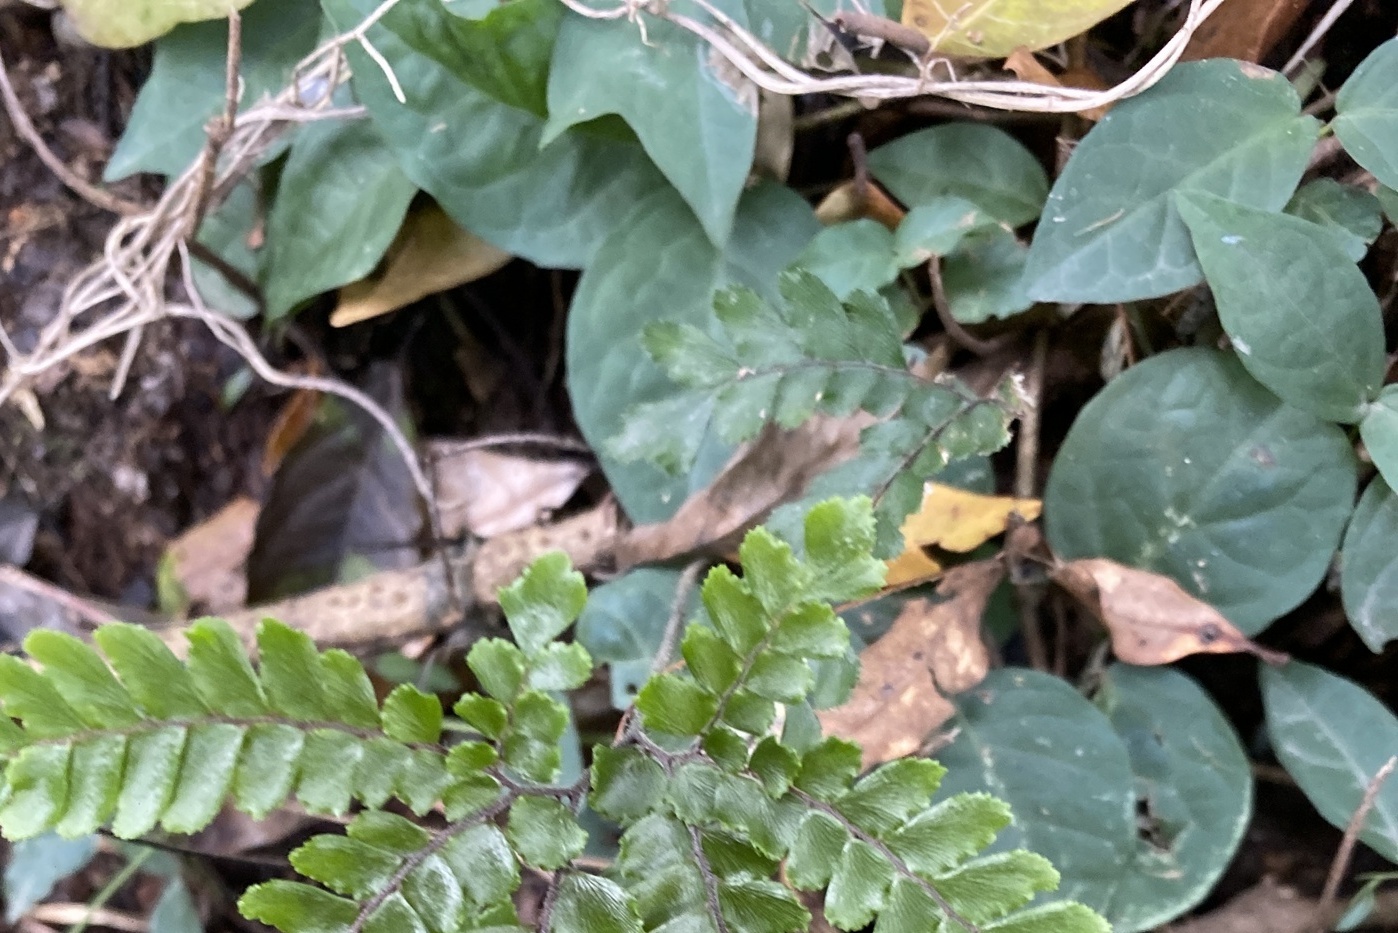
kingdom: Plantae
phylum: Tracheophyta
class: Magnoliopsida
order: Lamiales
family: Bignoniaceae
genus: Dolichandra
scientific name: Dolichandra unguis-cati
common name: Catclaw vine
